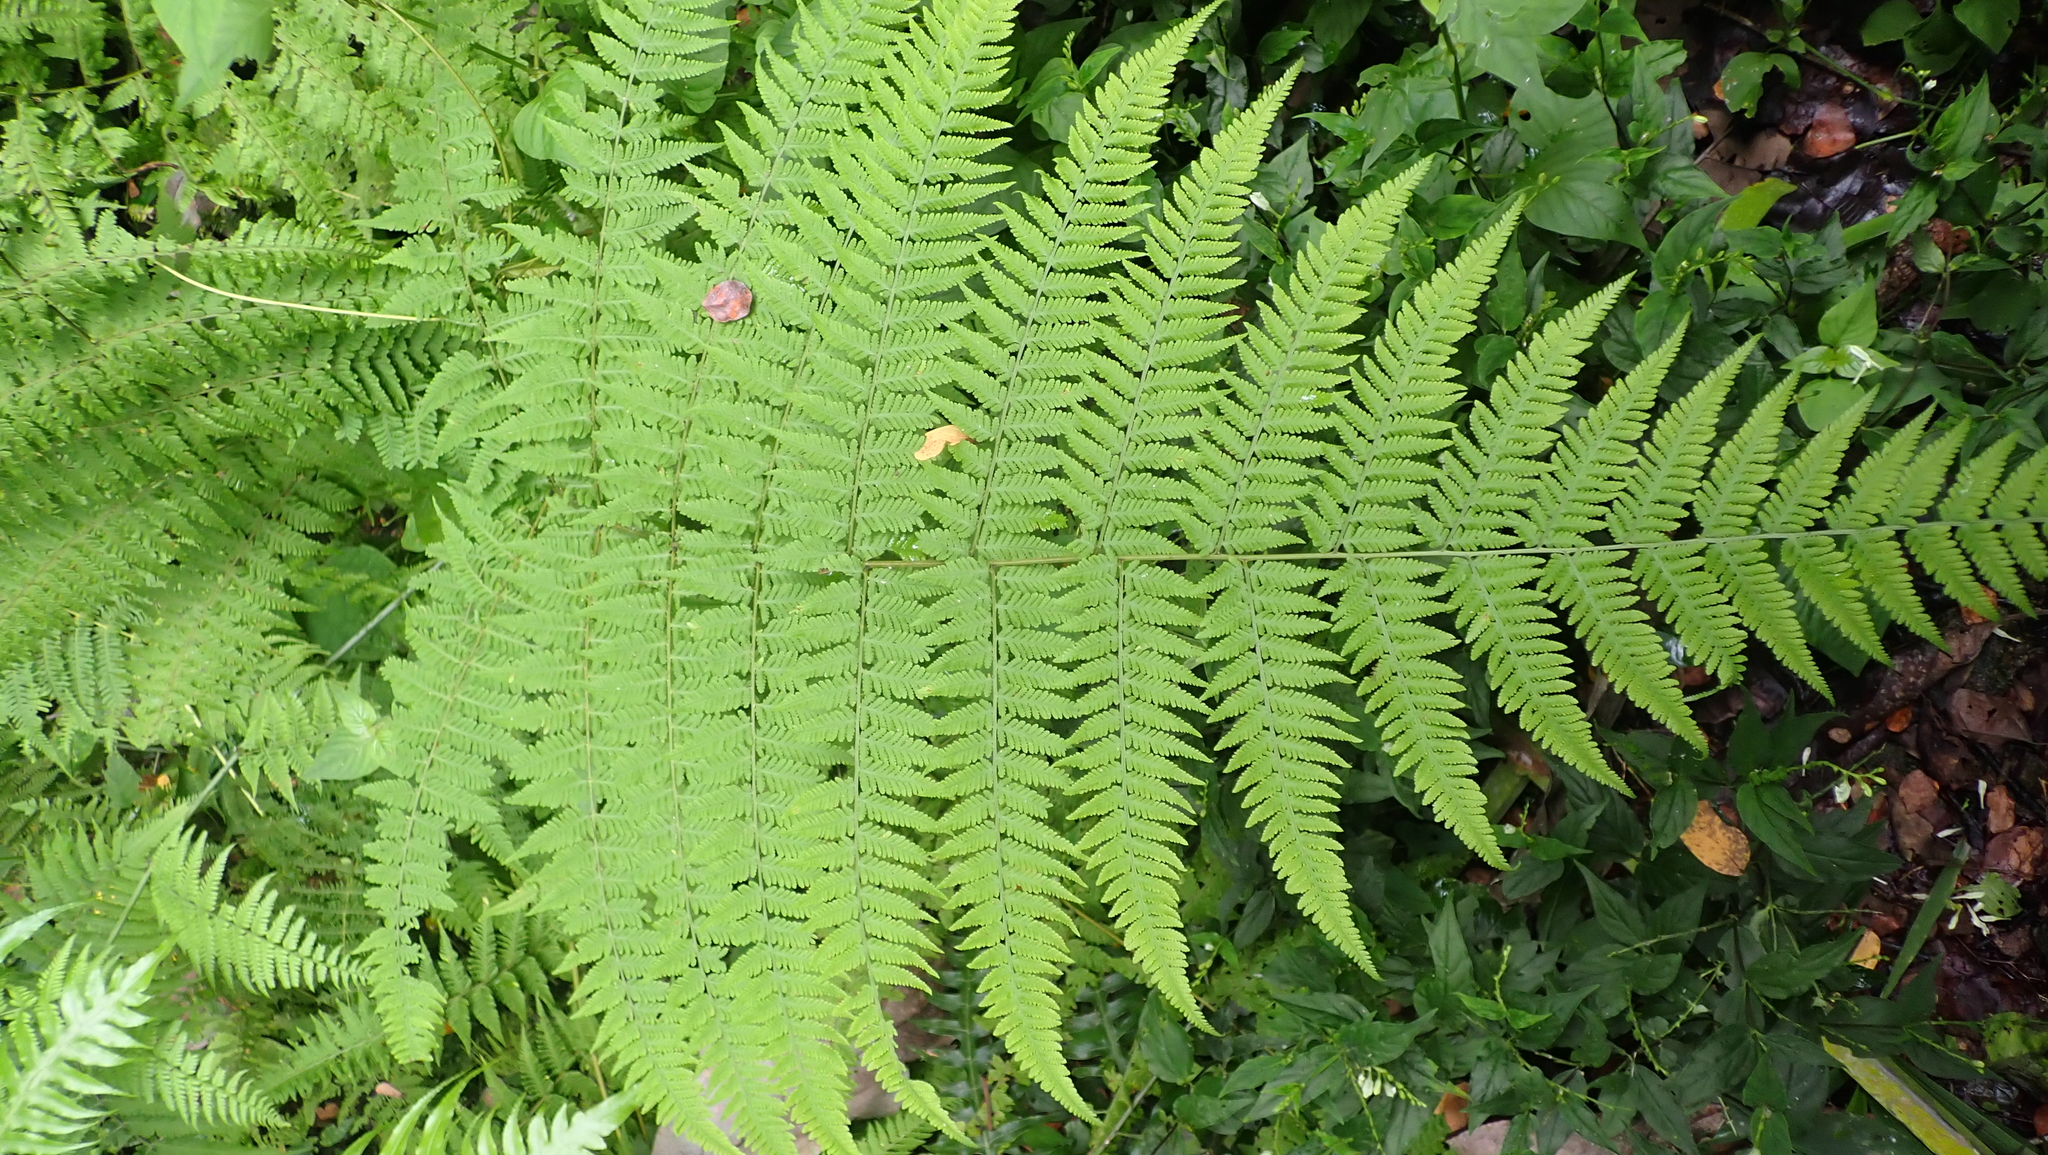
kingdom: Plantae
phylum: Tracheophyta
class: Polypodiopsida
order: Polypodiales
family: Thelypteridaceae
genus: Macrothelypteris
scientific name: Macrothelypteris torresiana
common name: Swordfern
